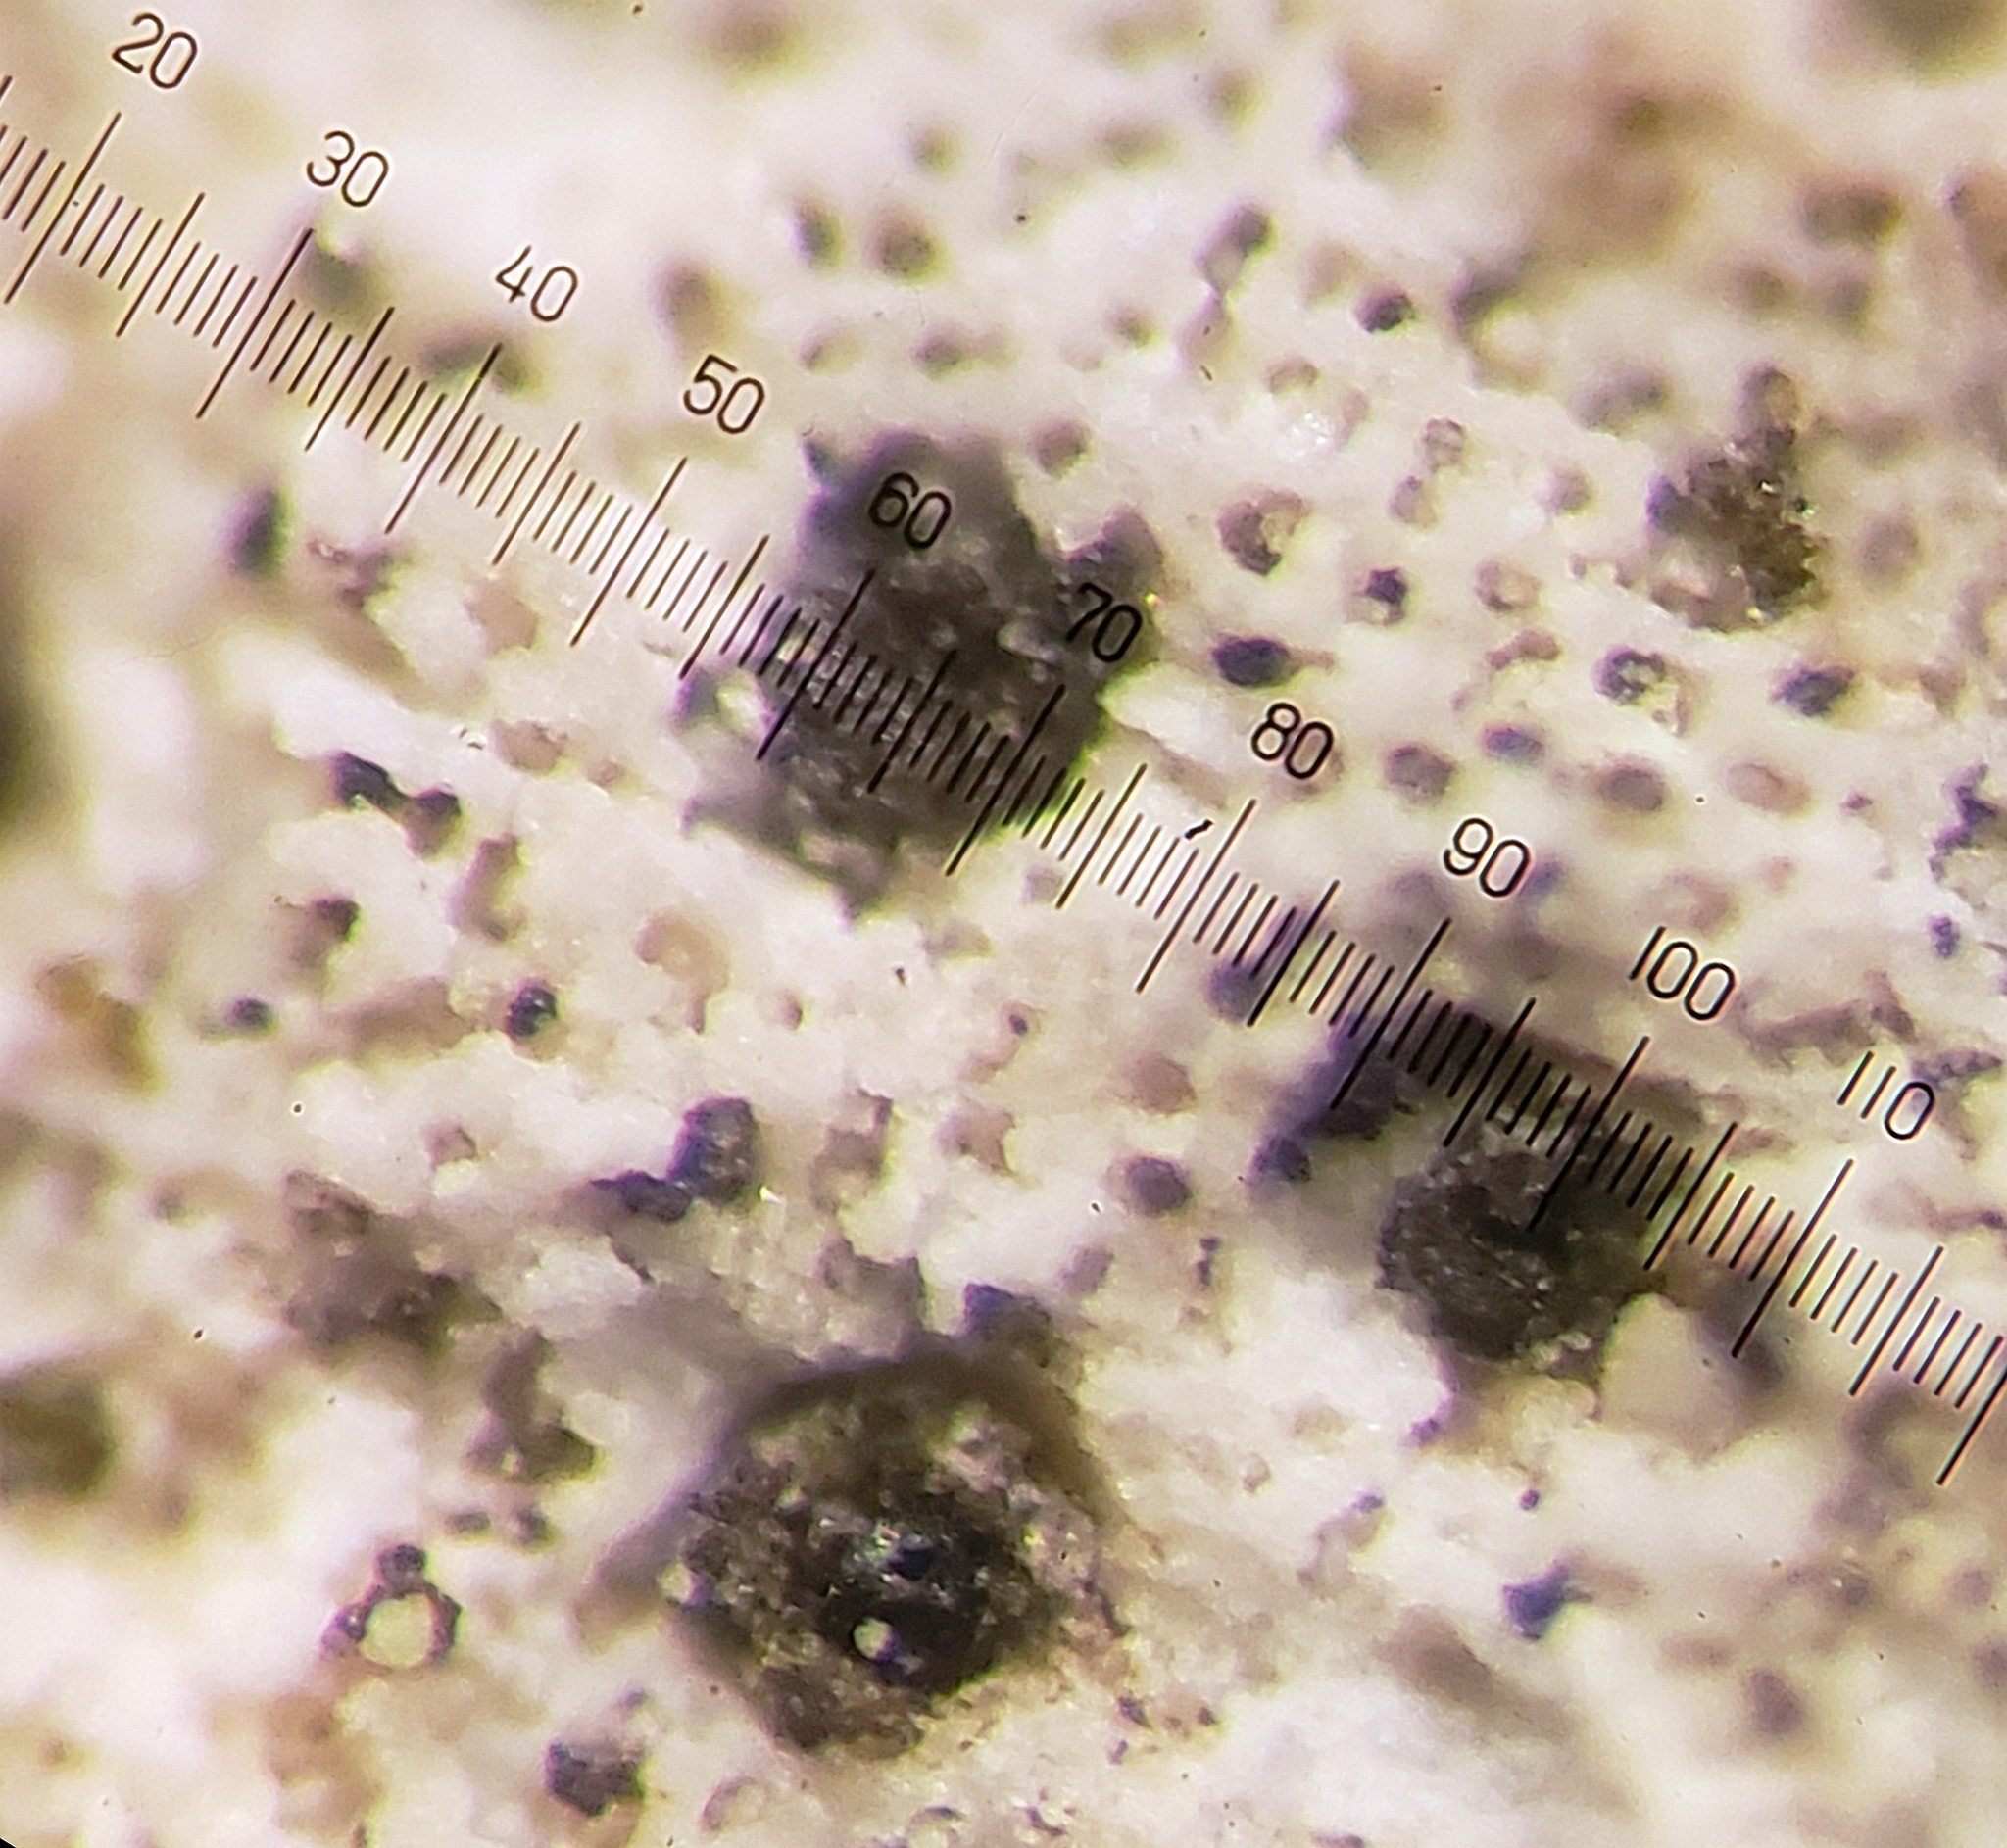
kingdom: Fungi
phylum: Ascomycota
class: Eurotiomycetes
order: Verrucariales
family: Verrucariaceae
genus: Bagliettoa
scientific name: Bagliettoa calciseda
